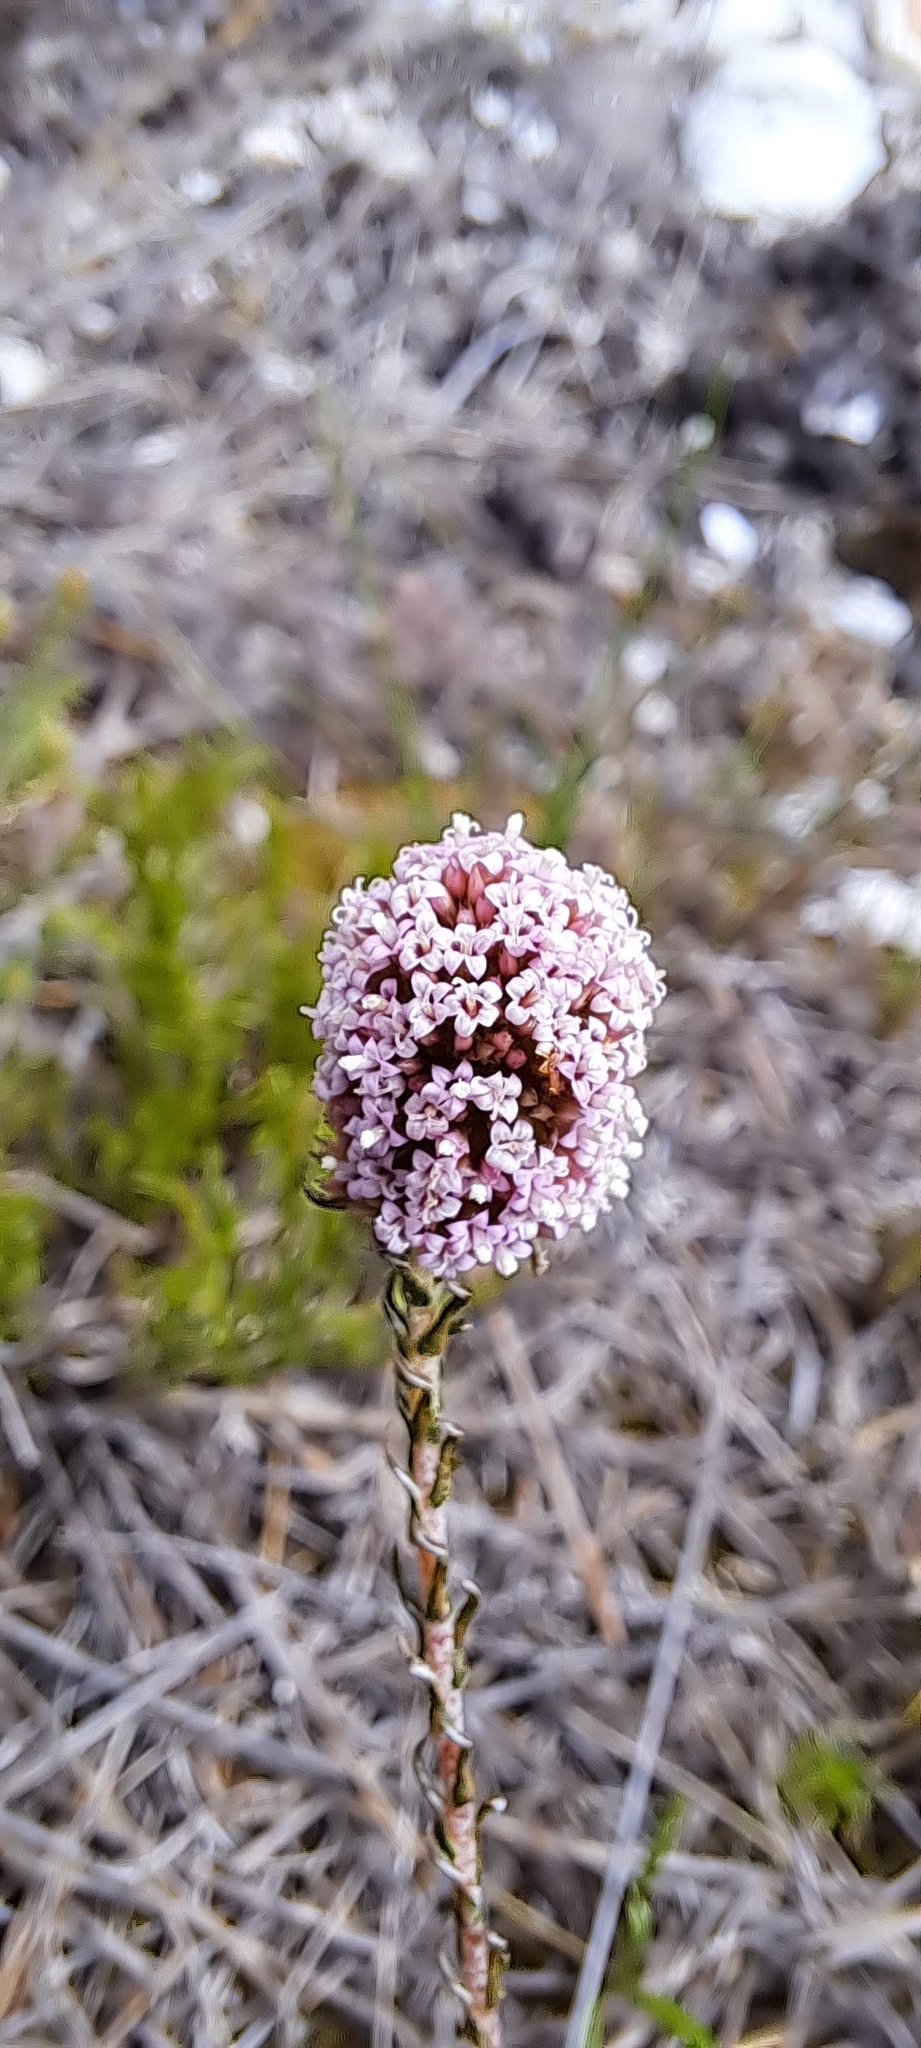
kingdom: Plantae
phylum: Tracheophyta
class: Magnoliopsida
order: Asterales
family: Asteraceae
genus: Stoebe
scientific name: Stoebe capitata
